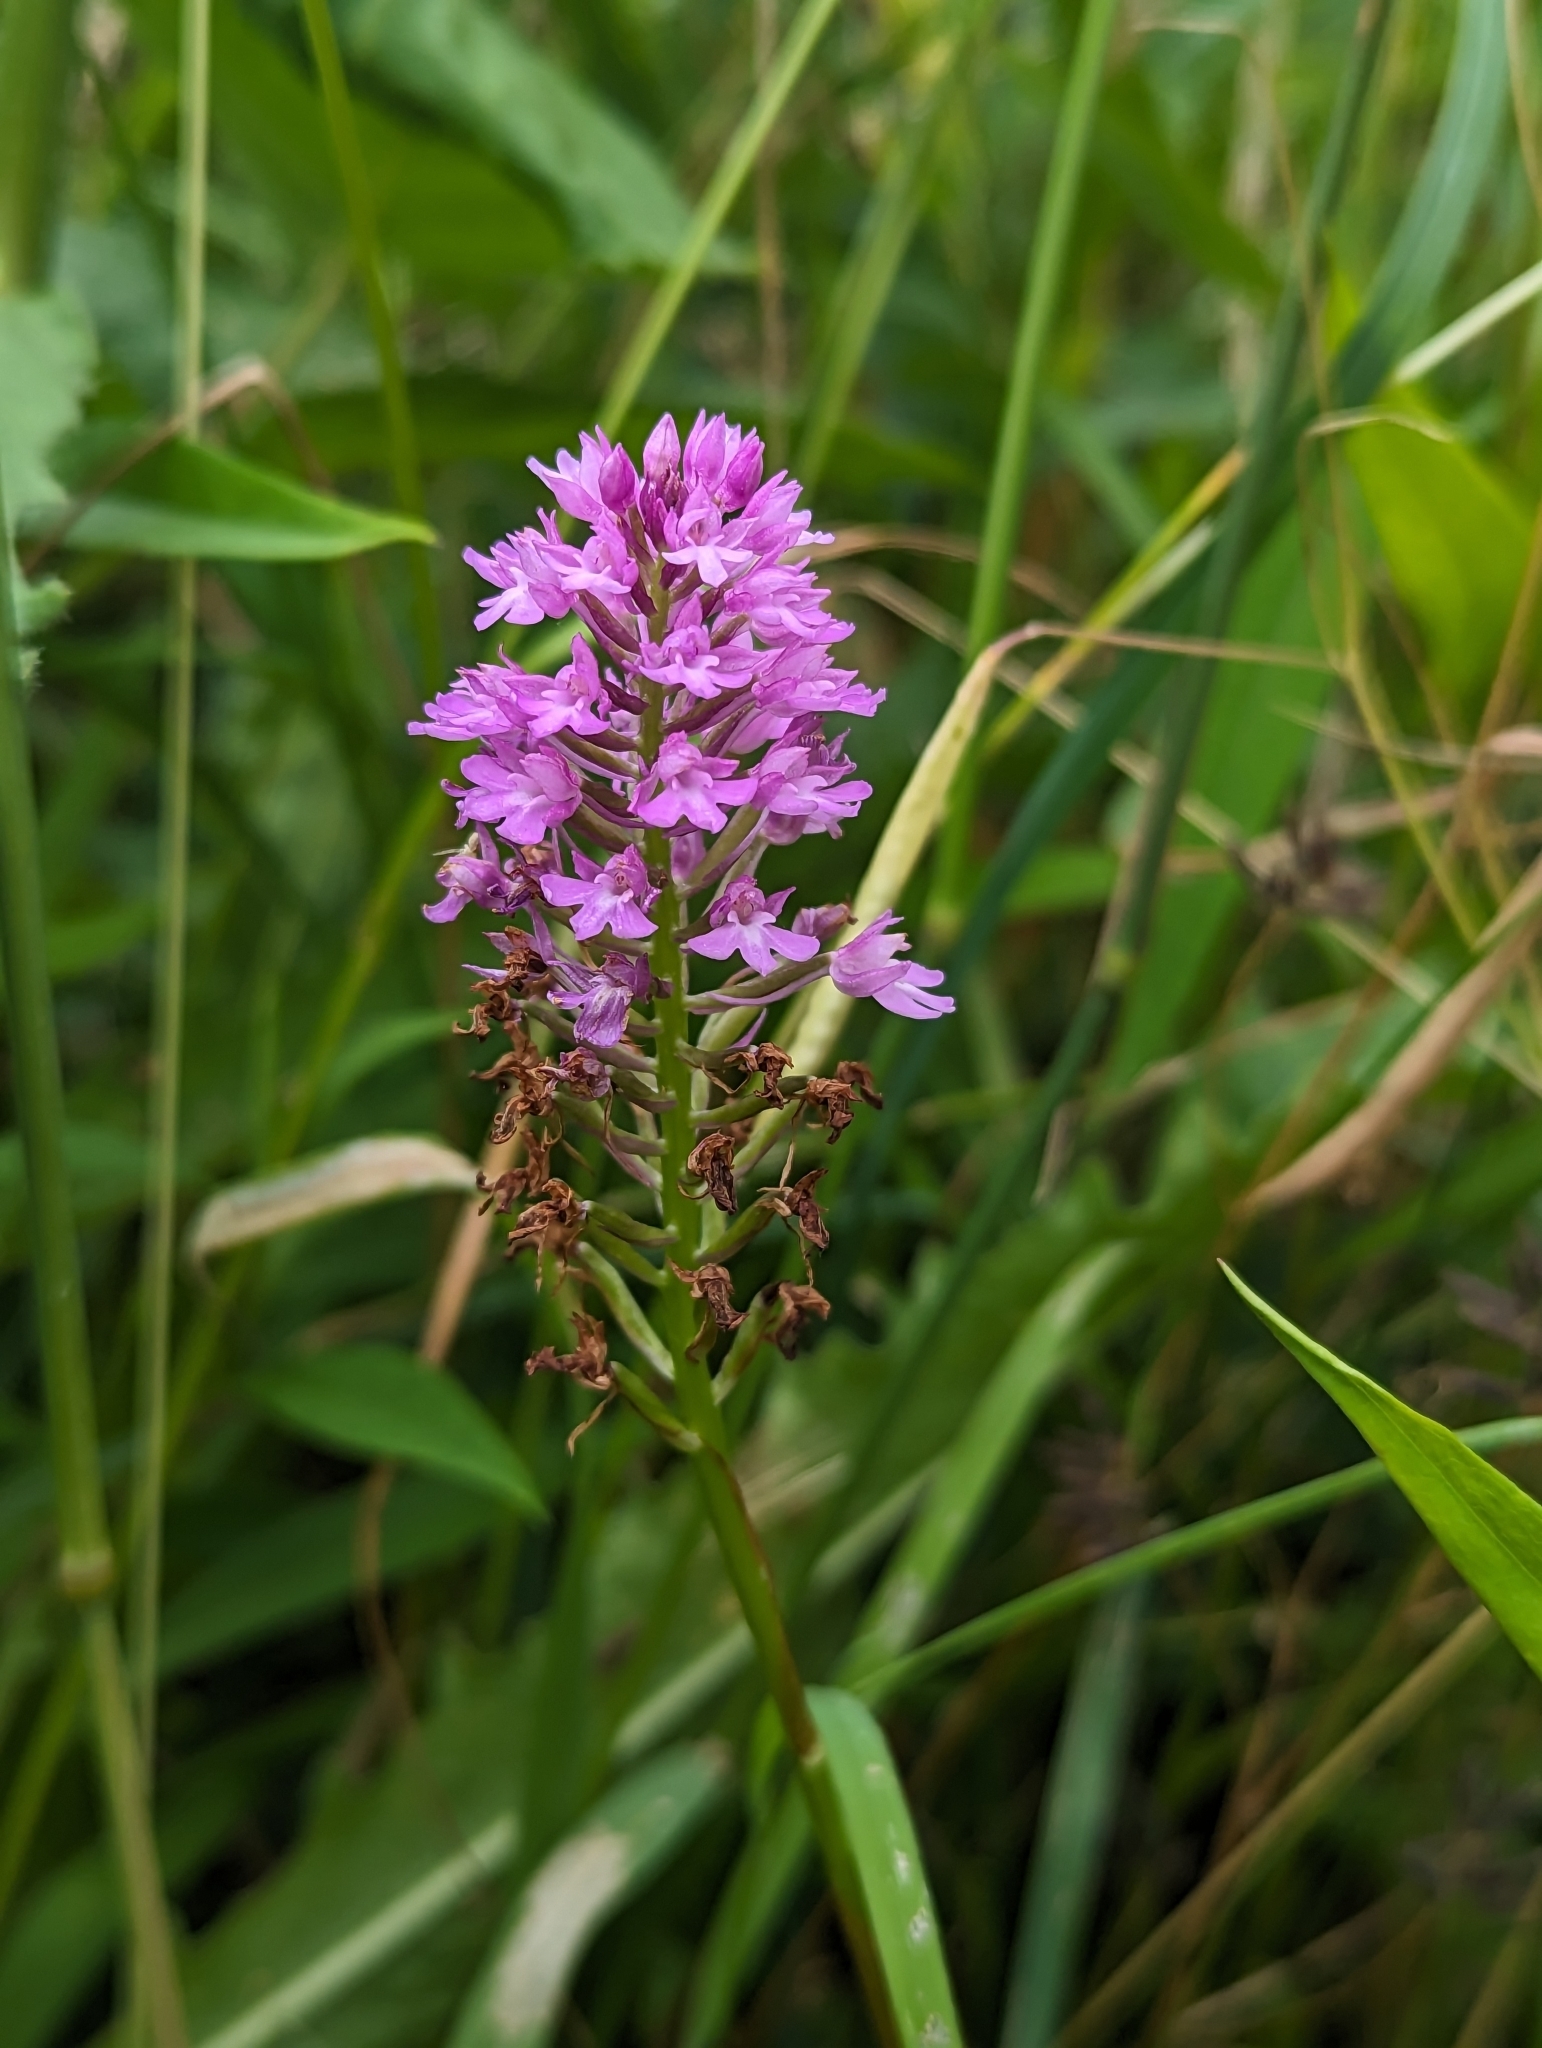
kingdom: Plantae
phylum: Tracheophyta
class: Liliopsida
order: Asparagales
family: Orchidaceae
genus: Anacamptis
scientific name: Anacamptis pyramidalis
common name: Pyramidal orchid
